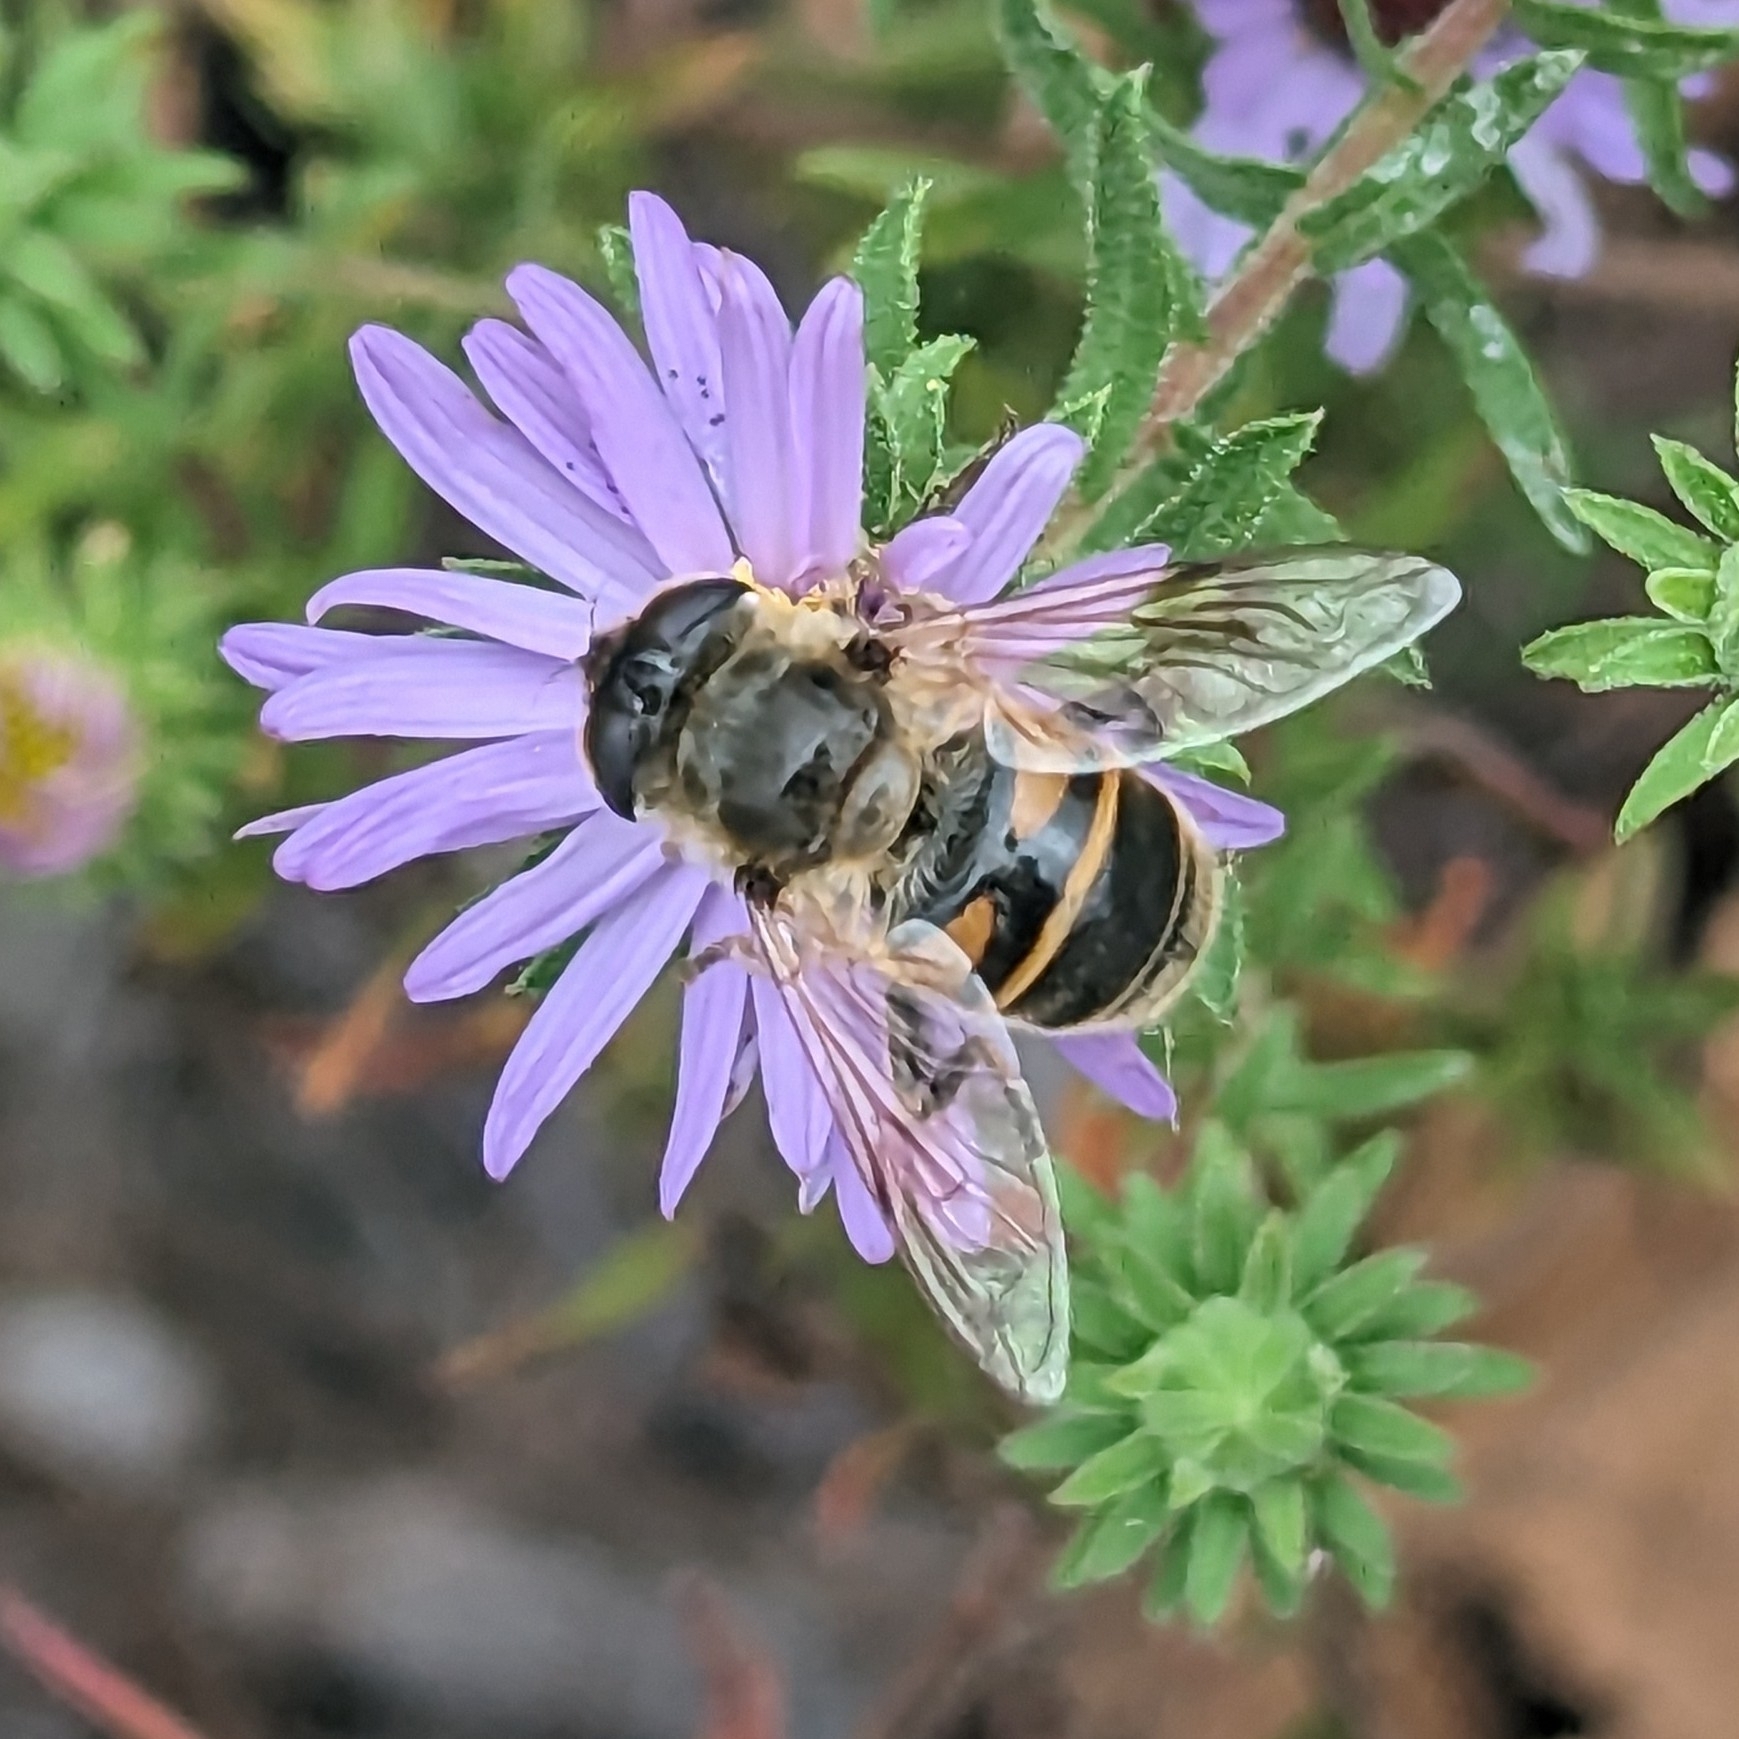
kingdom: Animalia
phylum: Arthropoda
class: Insecta
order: Diptera
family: Syrphidae
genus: Eristalis
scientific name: Eristalis tenax
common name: Drone fly
